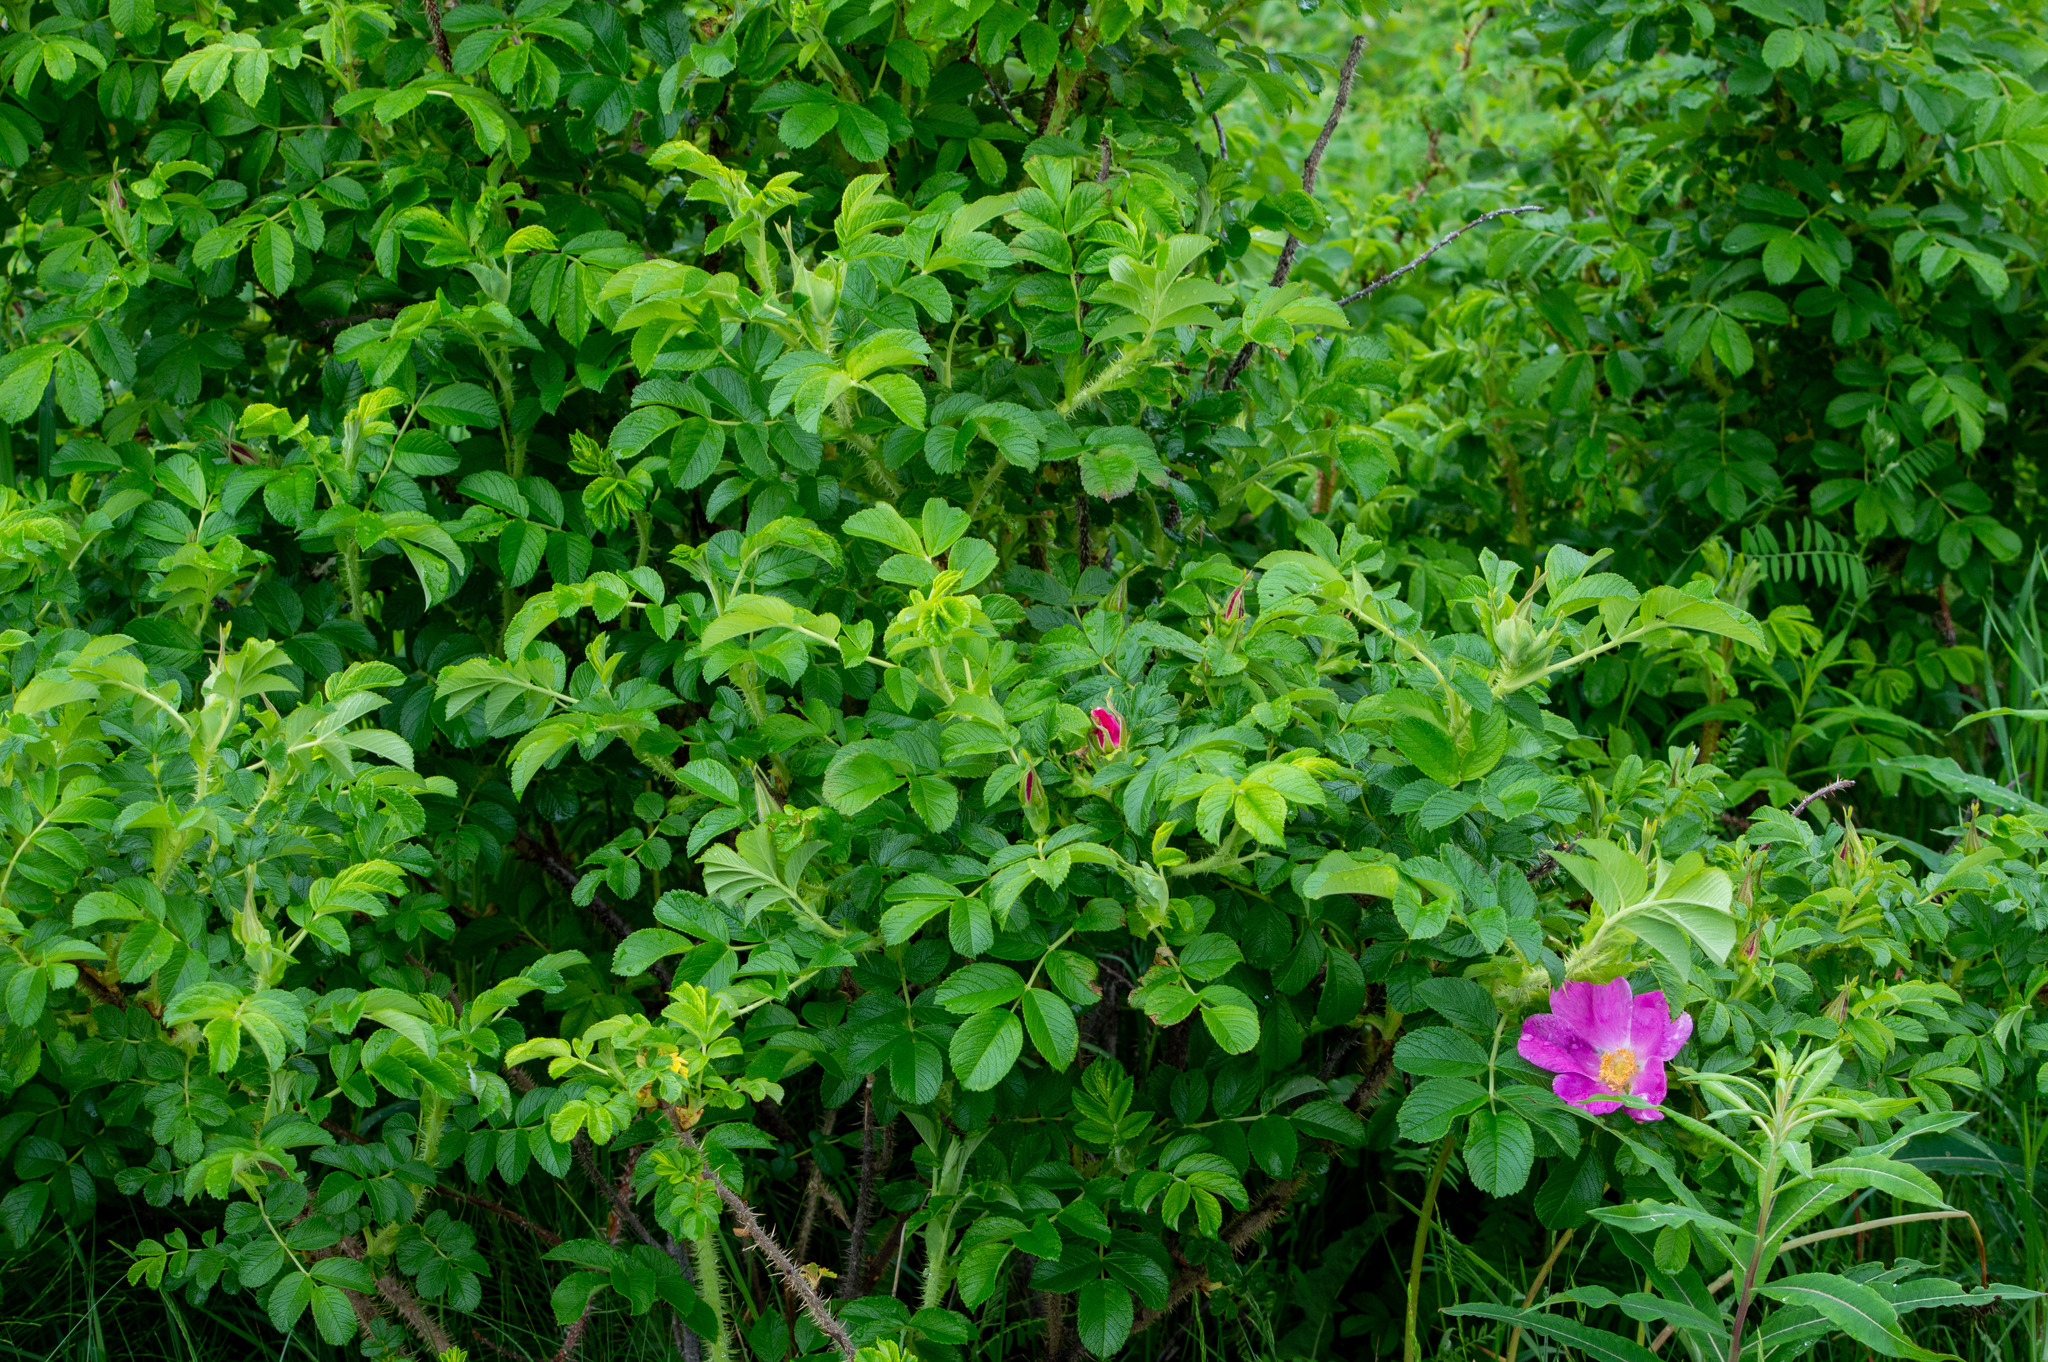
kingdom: Plantae
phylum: Tracheophyta
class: Magnoliopsida
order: Rosales
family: Rosaceae
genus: Rosa
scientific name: Rosa rugosa
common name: Japanese rose
